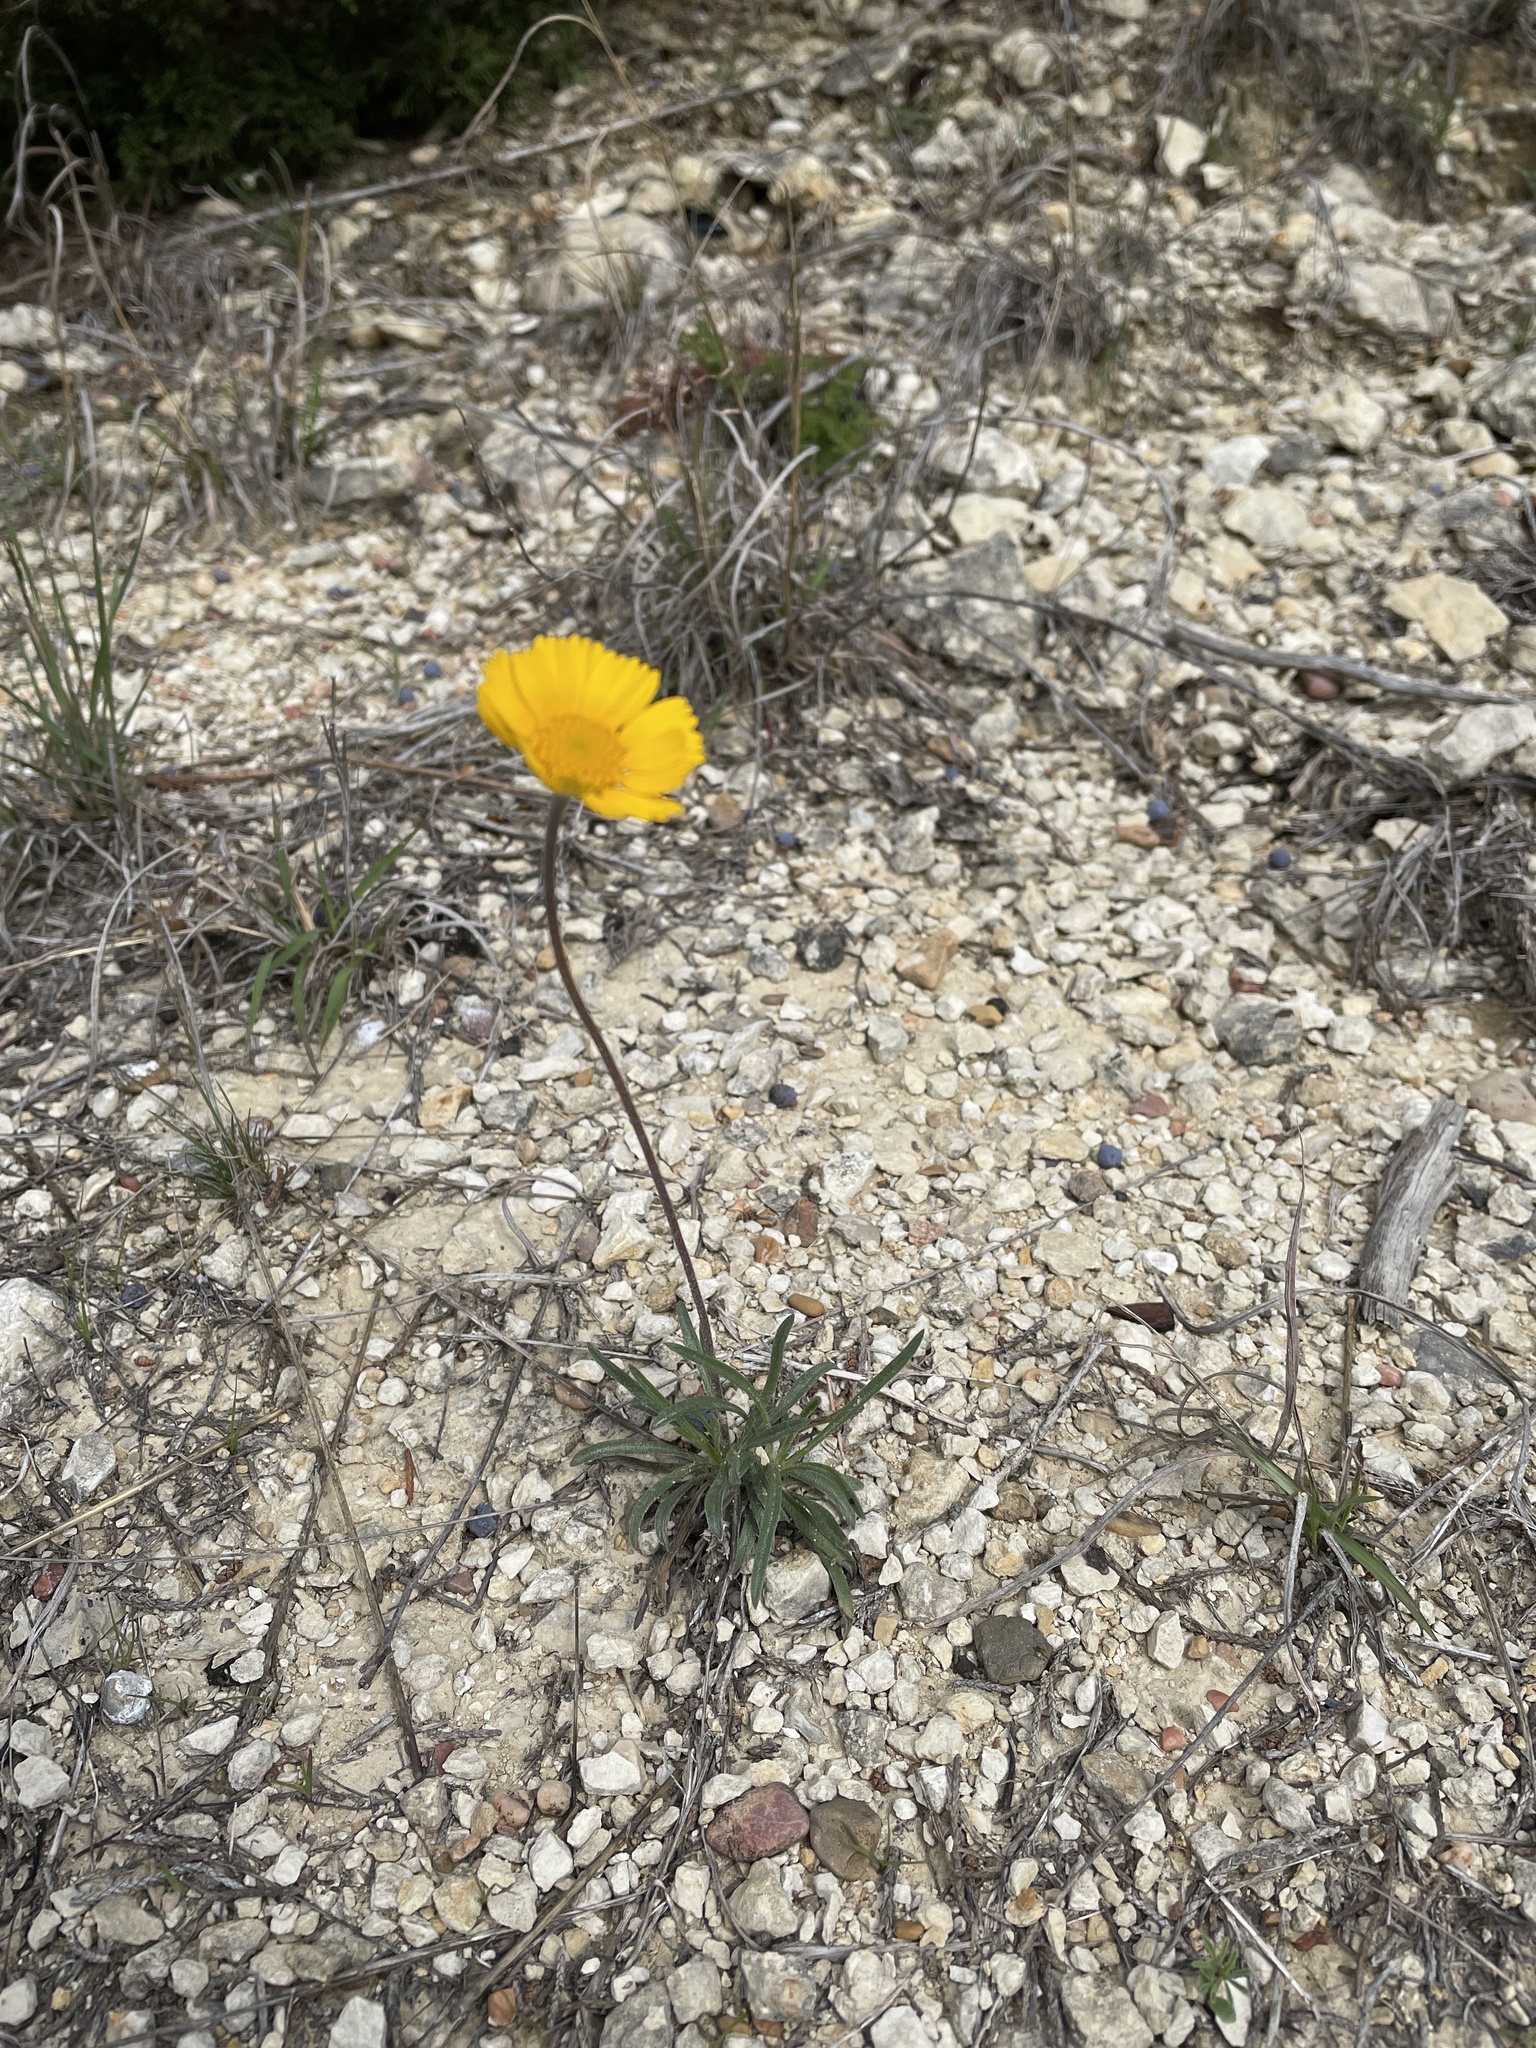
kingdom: Plantae
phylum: Tracheophyta
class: Magnoliopsida
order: Asterales
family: Asteraceae
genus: Tetraneuris
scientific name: Tetraneuris scaposa
